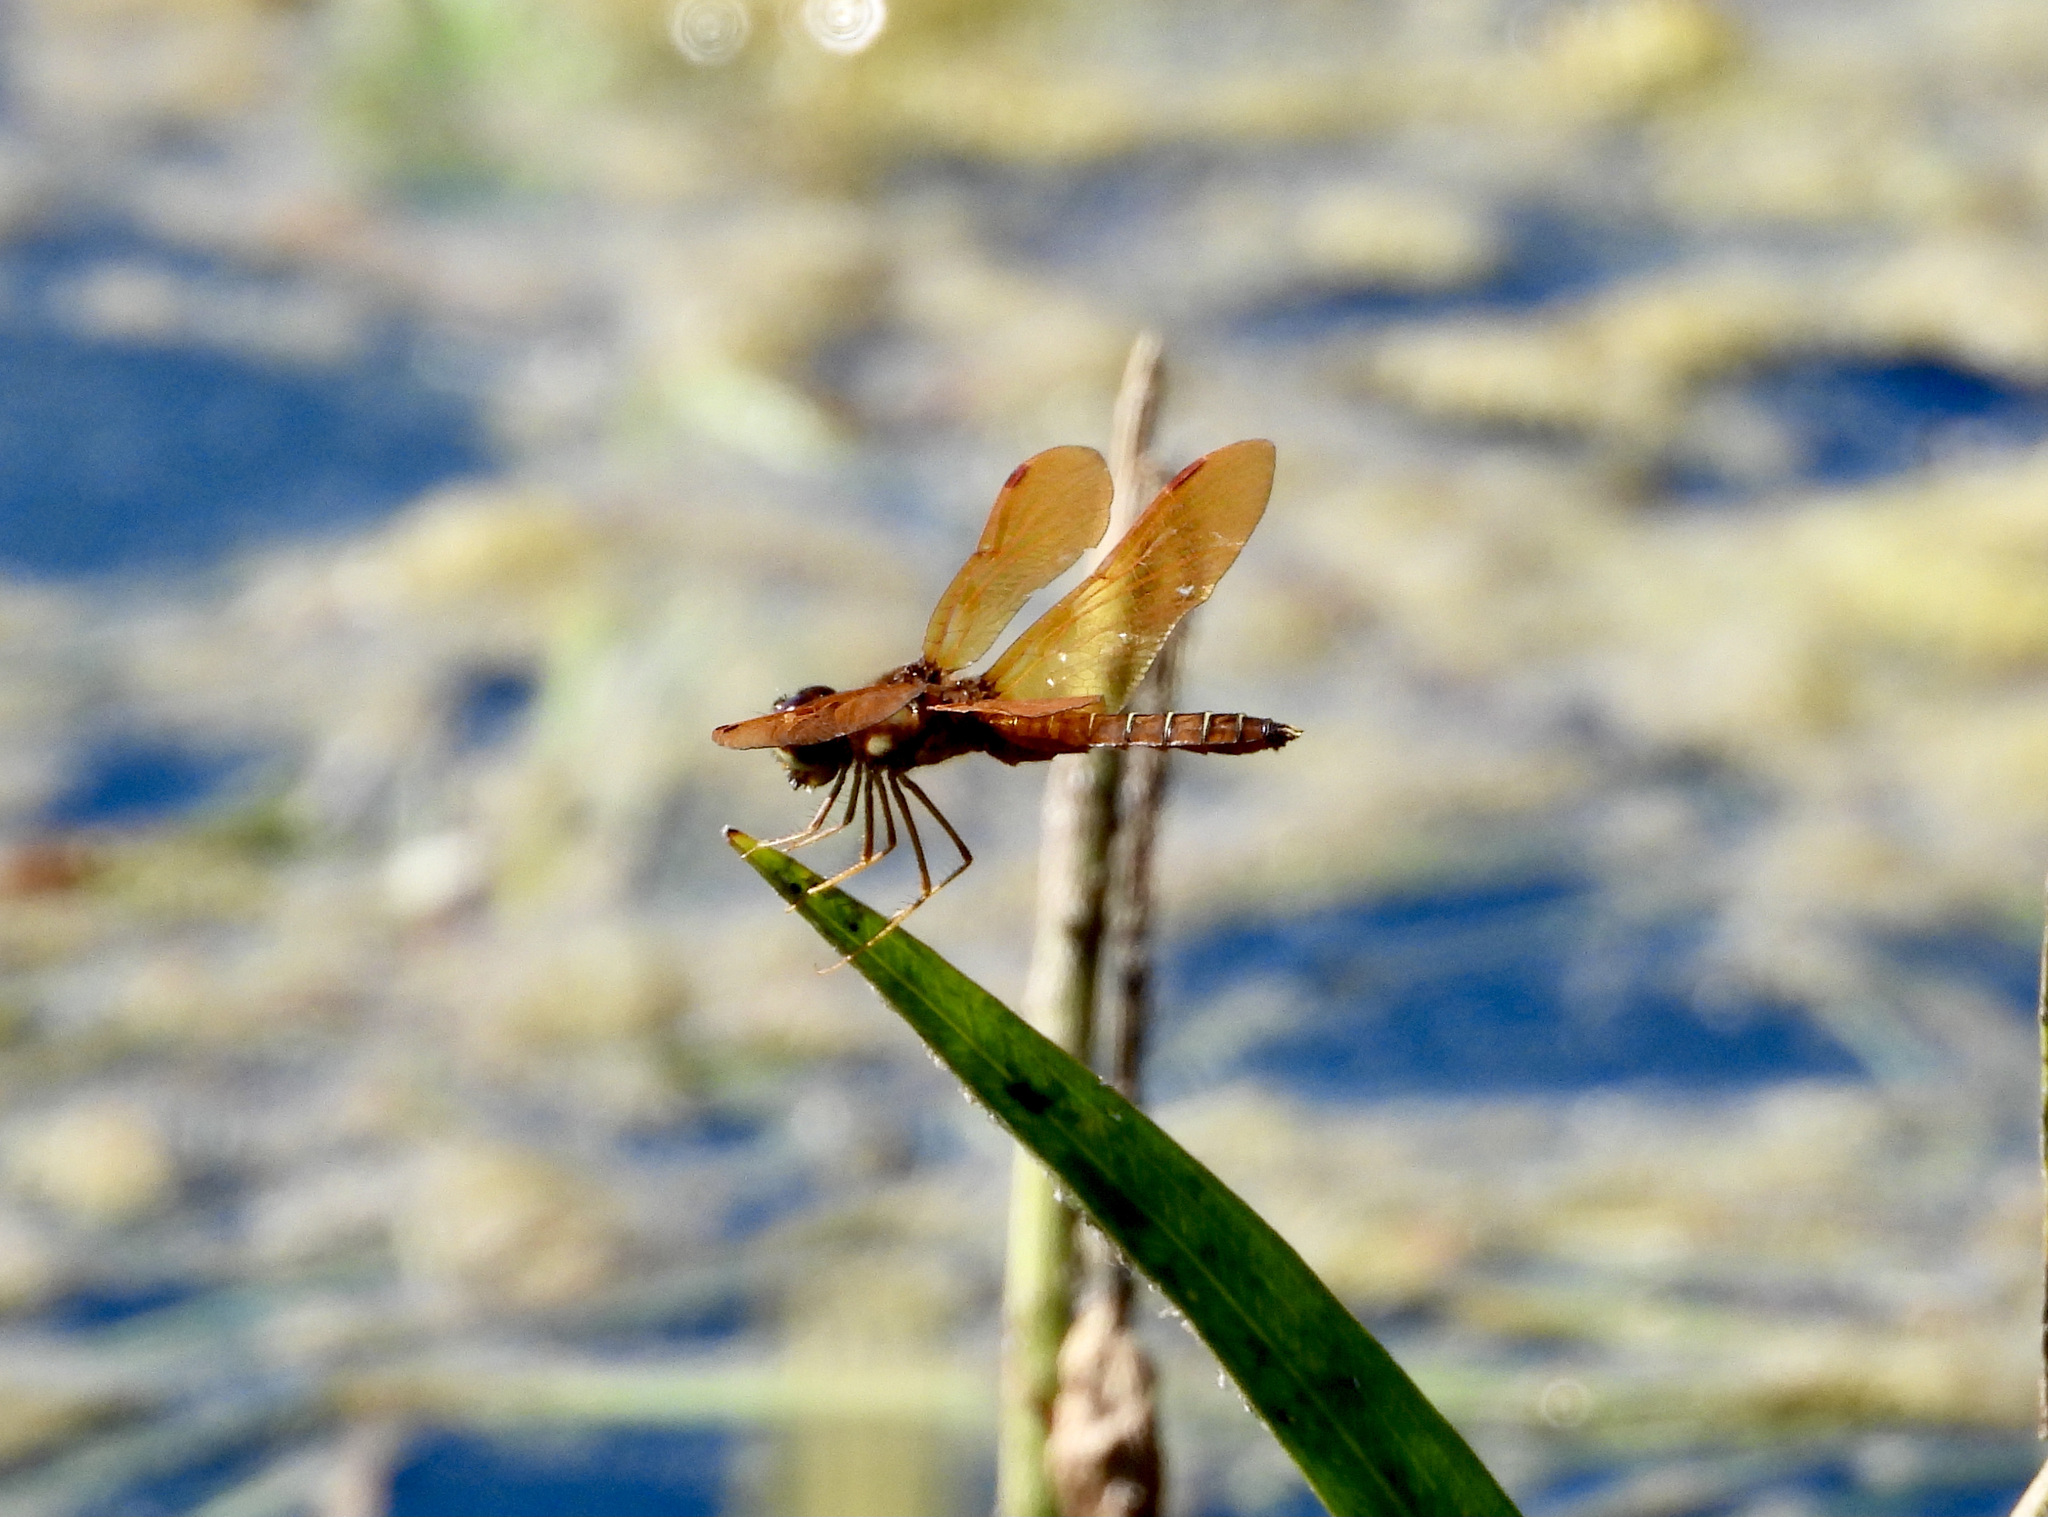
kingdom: Animalia
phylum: Arthropoda
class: Insecta
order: Odonata
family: Libellulidae
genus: Perithemis
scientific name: Perithemis tenera
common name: Eastern amberwing
